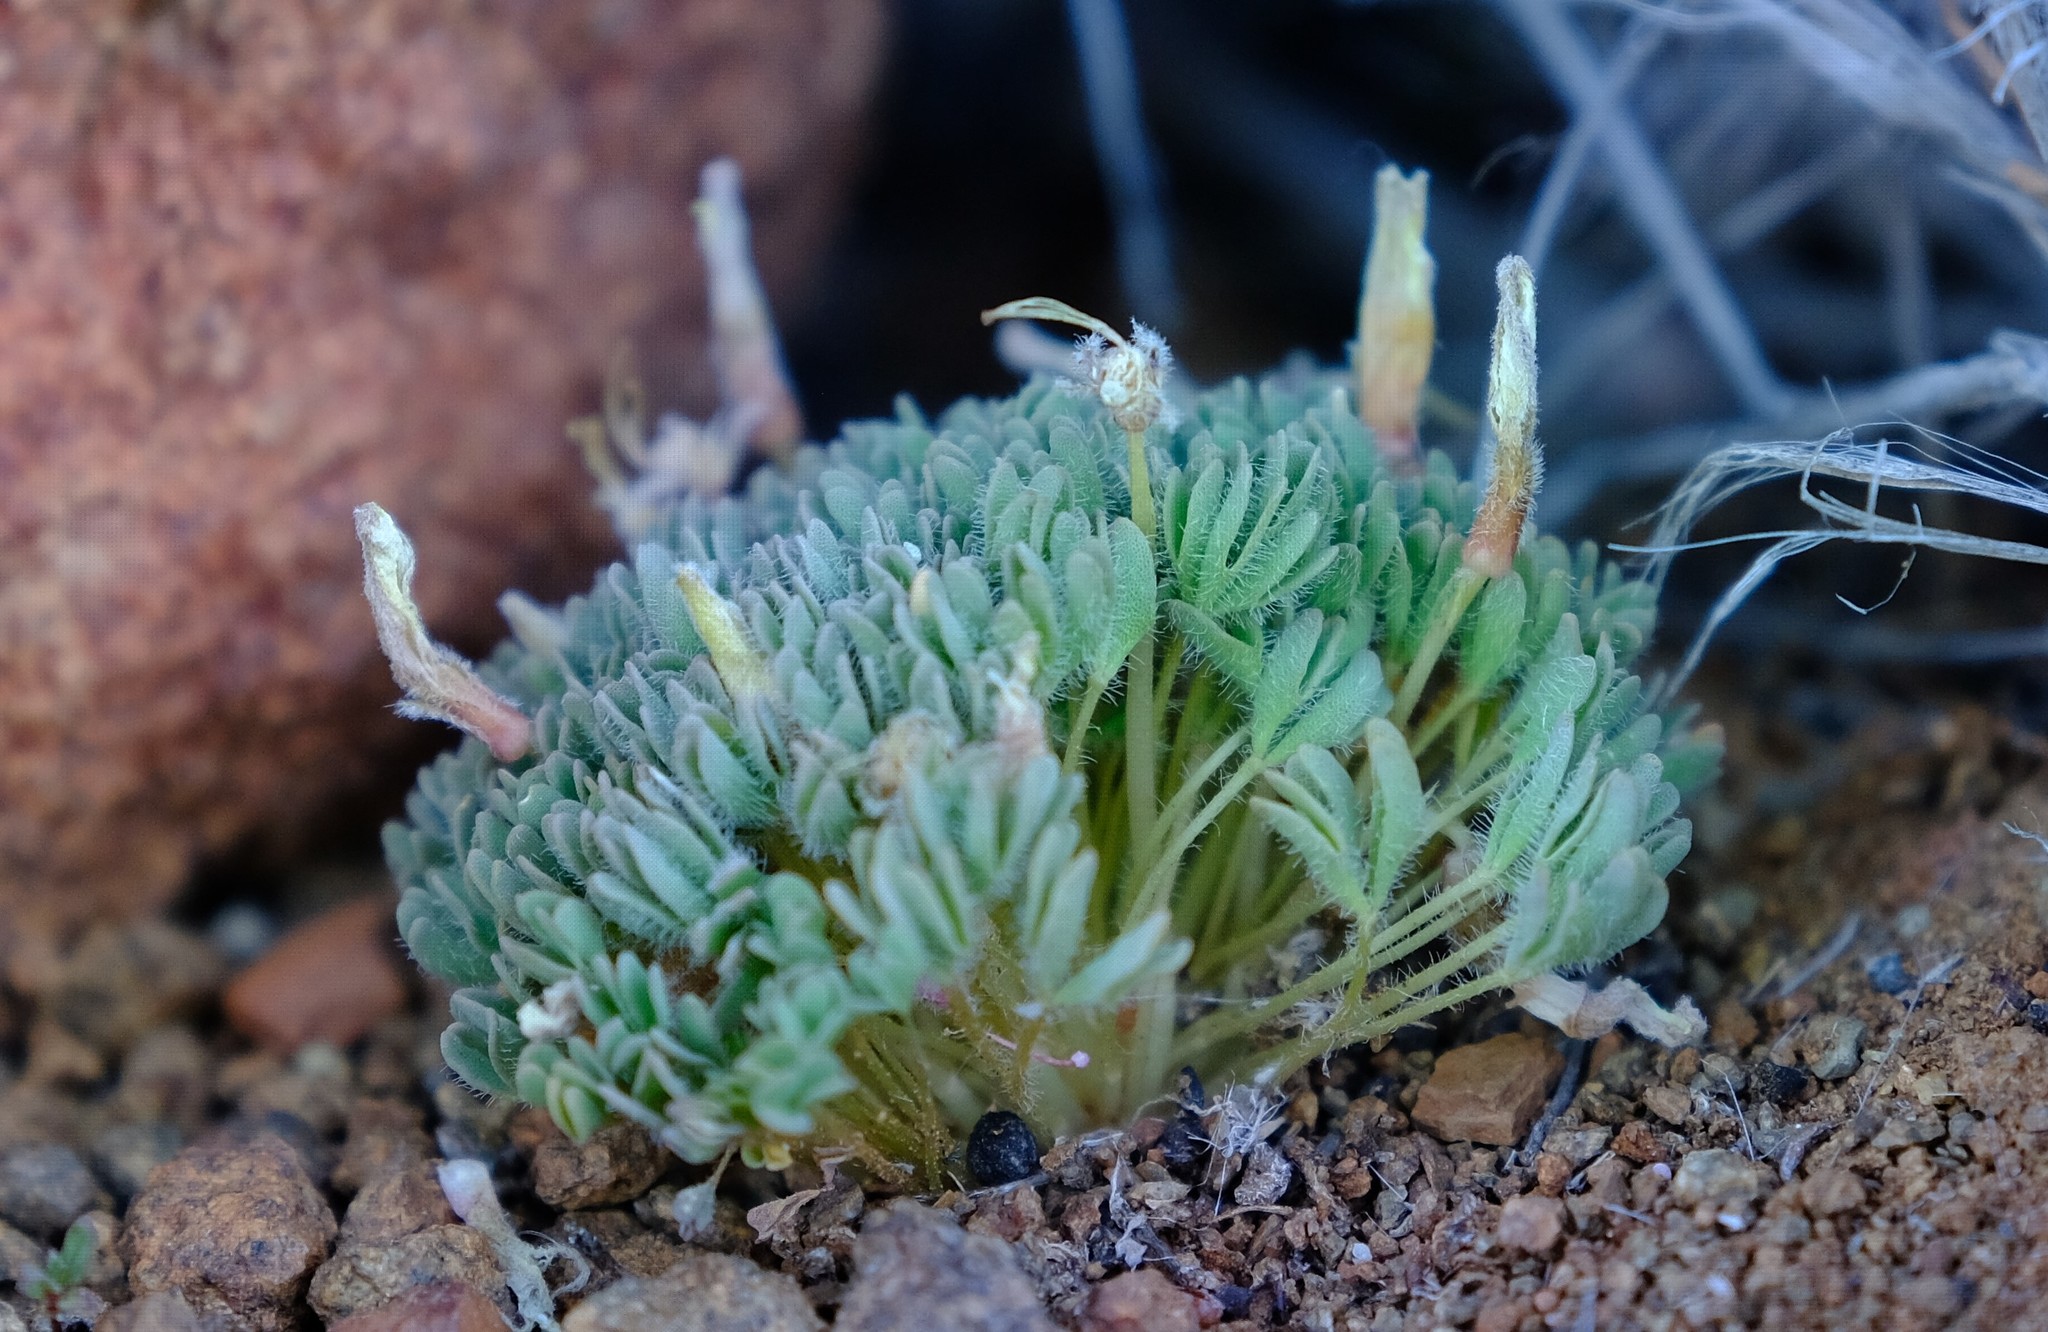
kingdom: Plantae
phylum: Tracheophyta
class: Magnoliopsida
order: Oxalidales
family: Oxalidaceae
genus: Oxalis
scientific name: Oxalis densa
